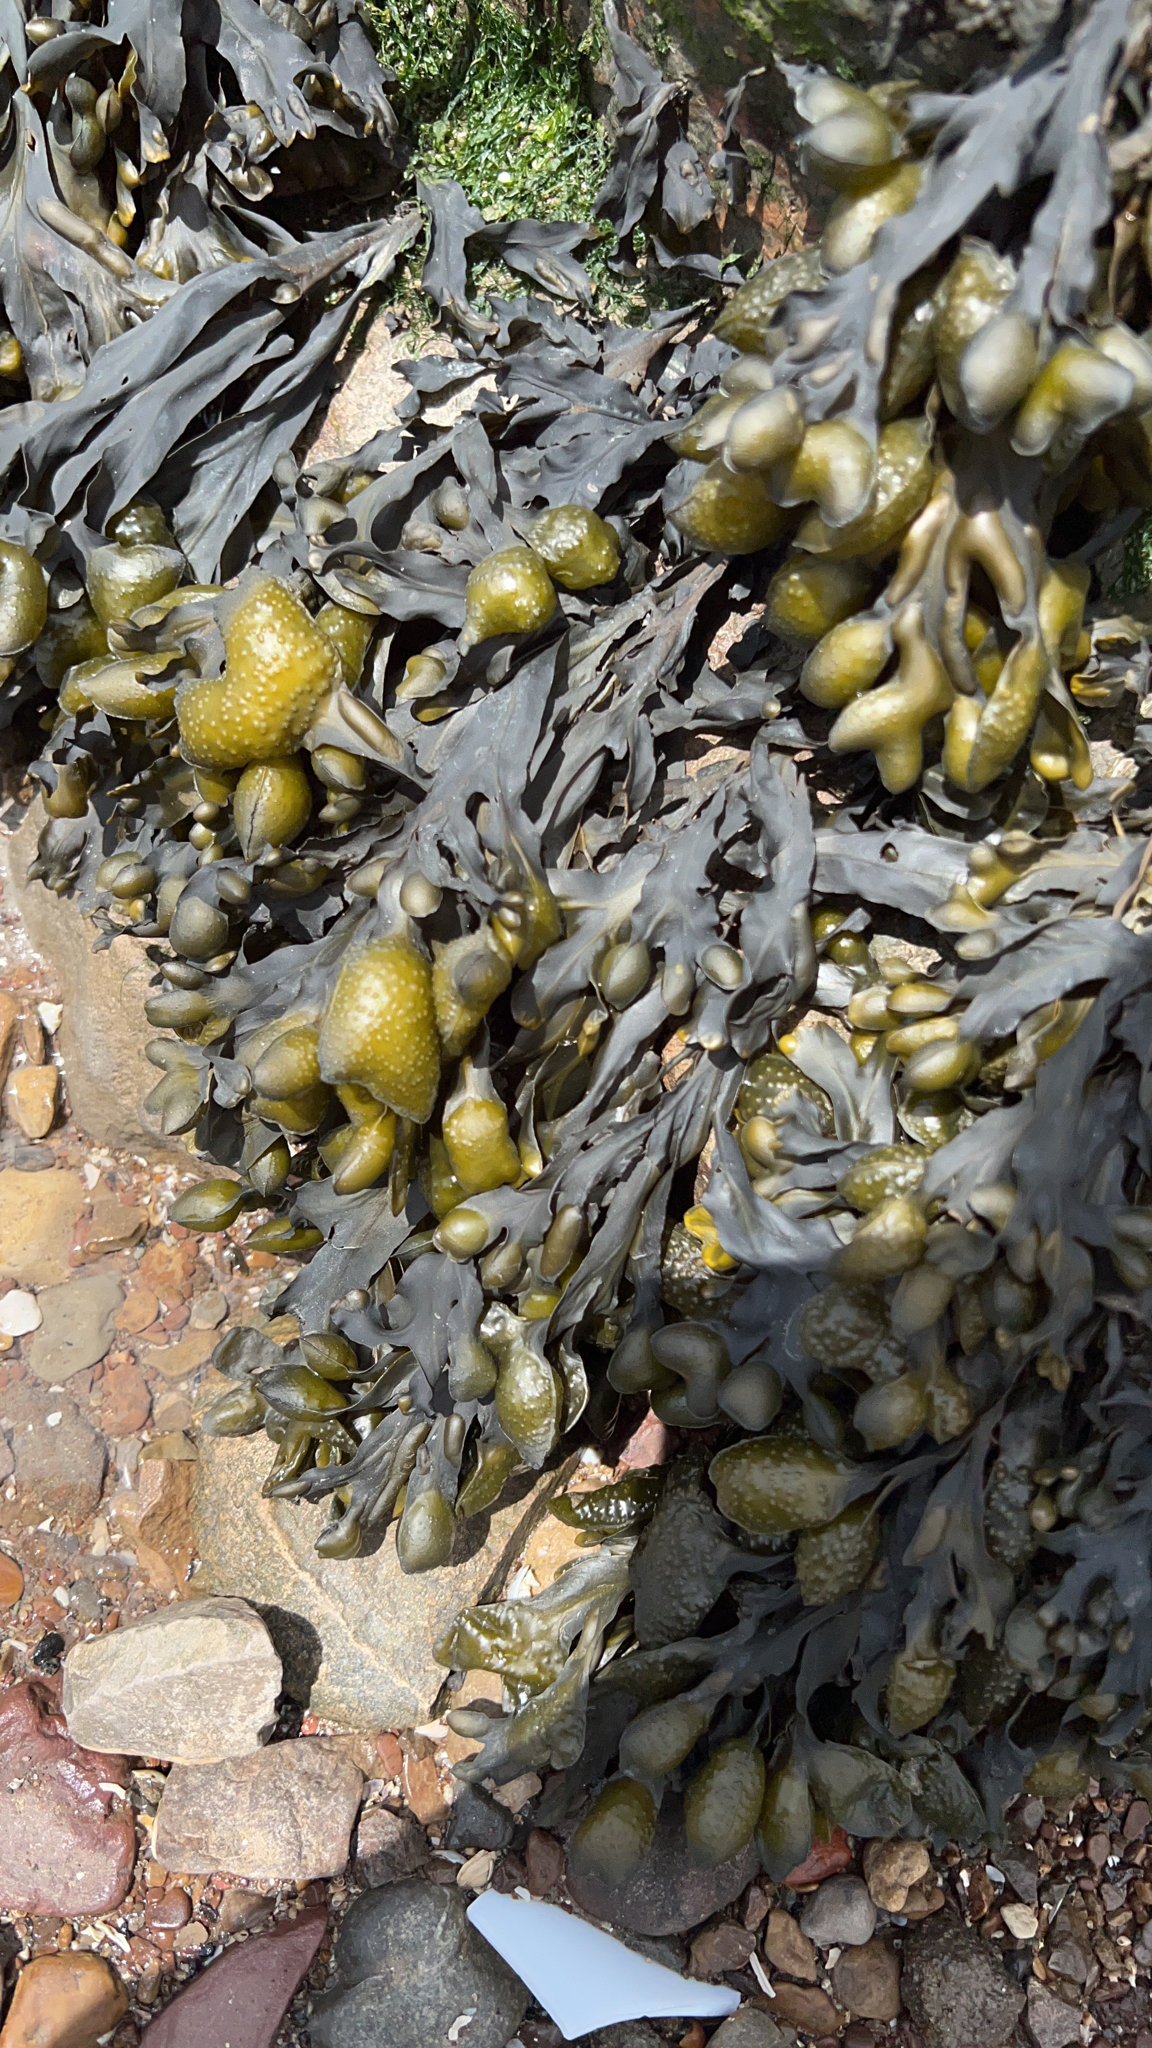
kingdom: Chromista
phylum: Ochrophyta
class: Phaeophyceae
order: Fucales
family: Fucaceae
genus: Fucus
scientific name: Fucus vesiculosus
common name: Bladder wrack
